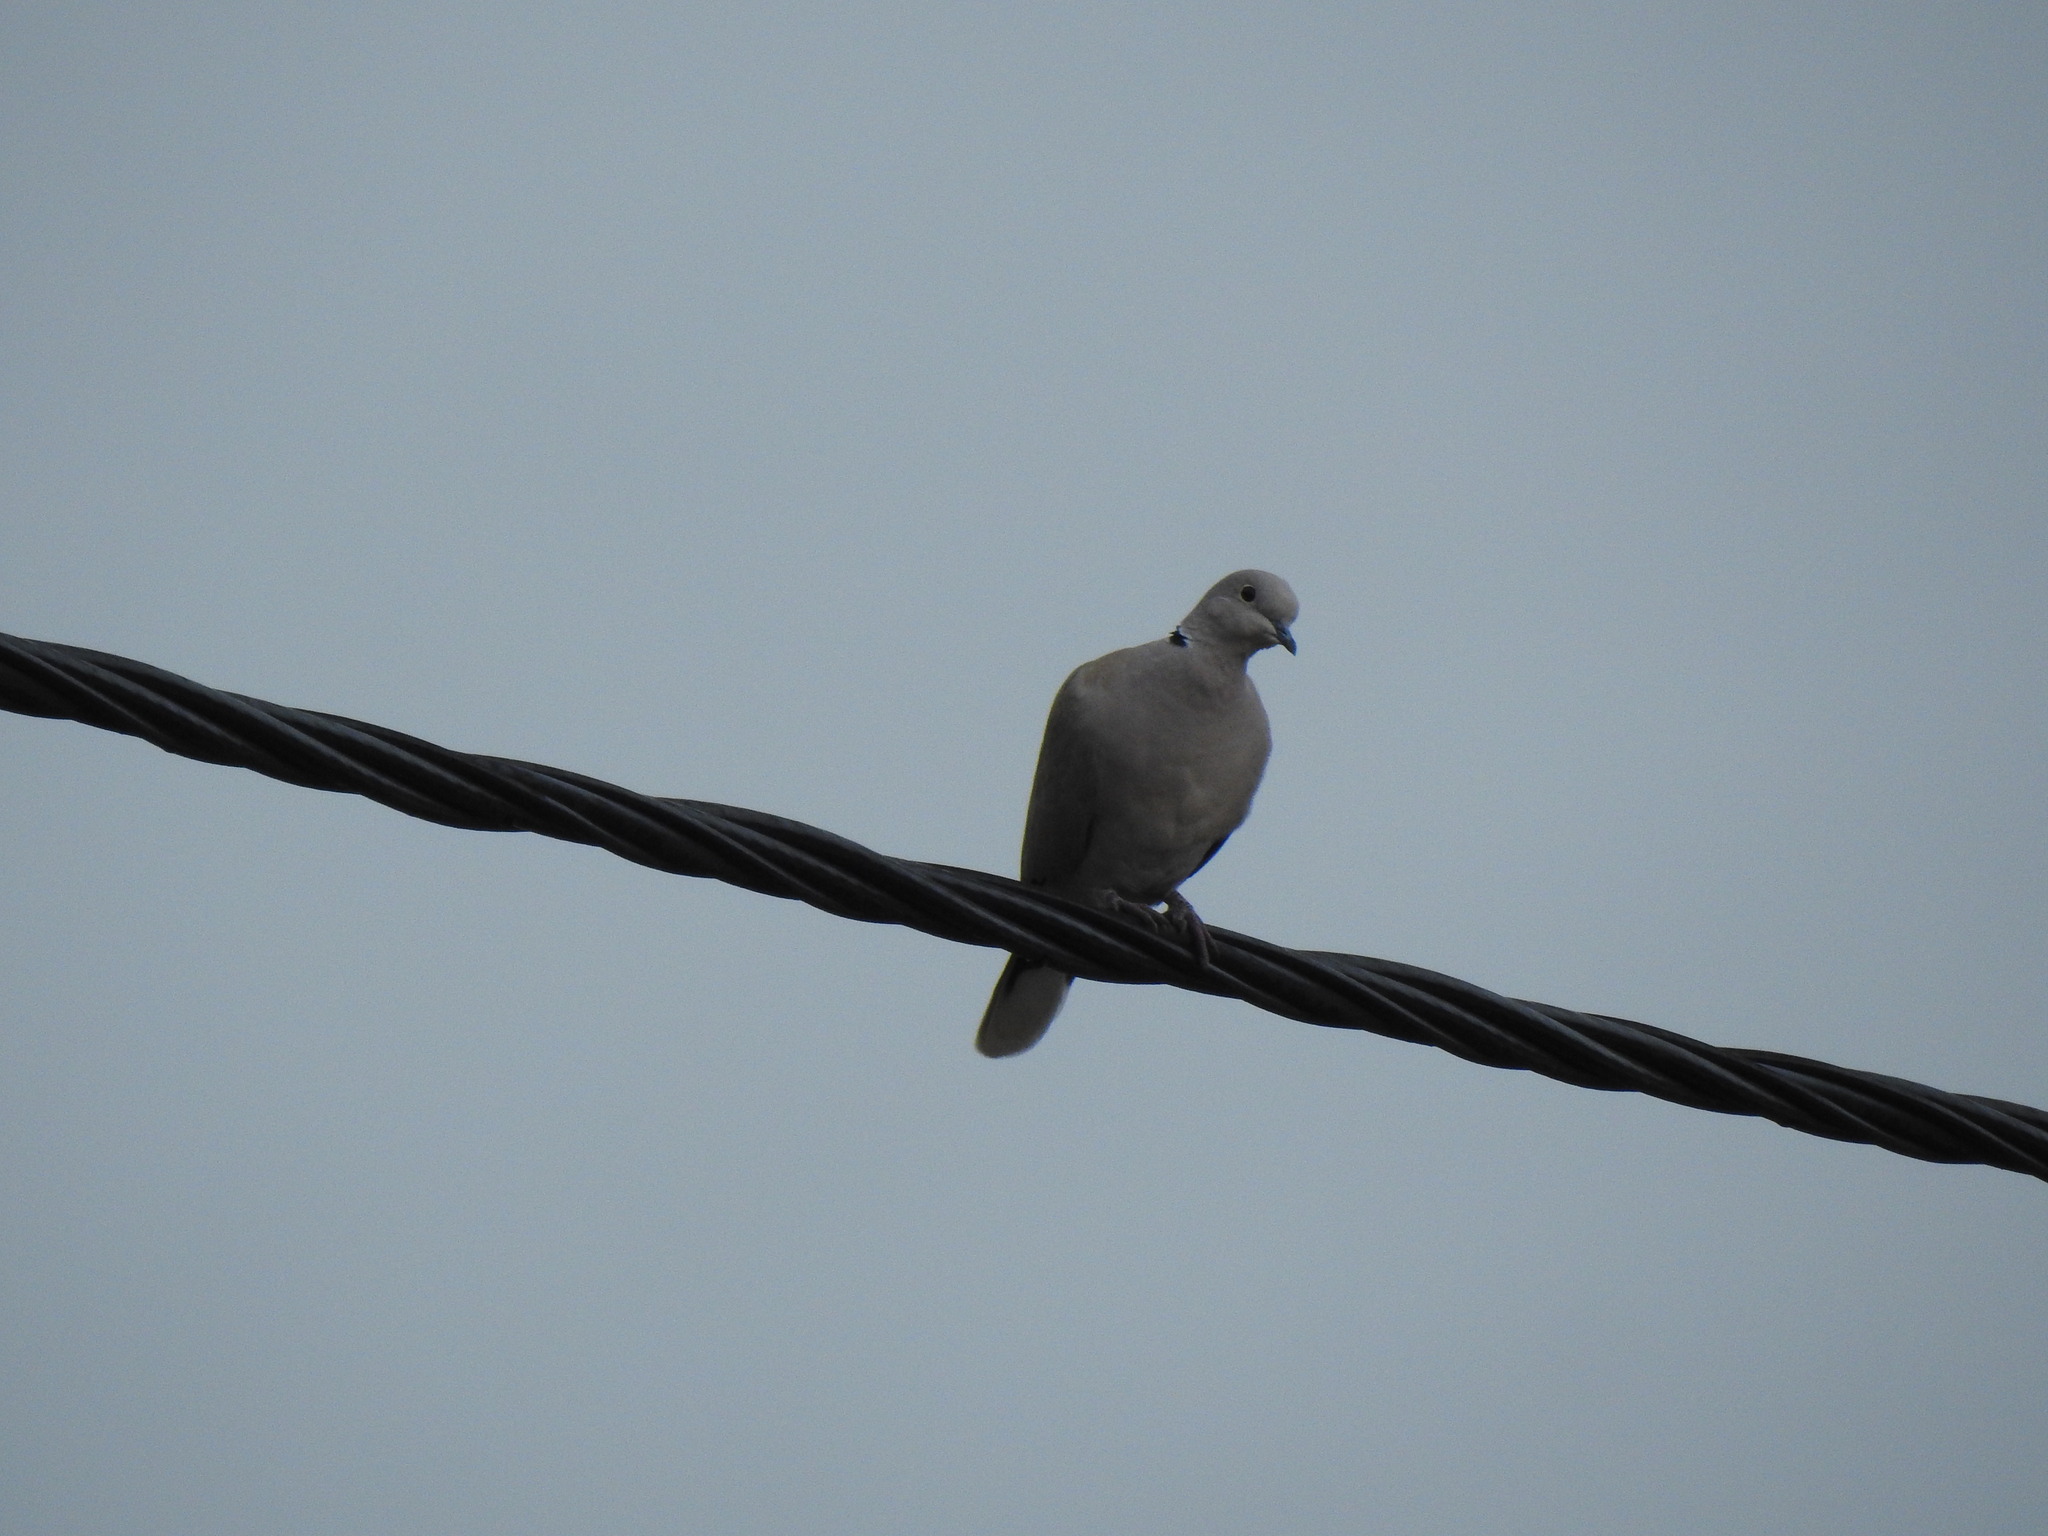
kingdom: Animalia
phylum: Chordata
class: Aves
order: Columbiformes
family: Columbidae
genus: Streptopelia
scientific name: Streptopelia decaocto
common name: Eurasian collared dove
